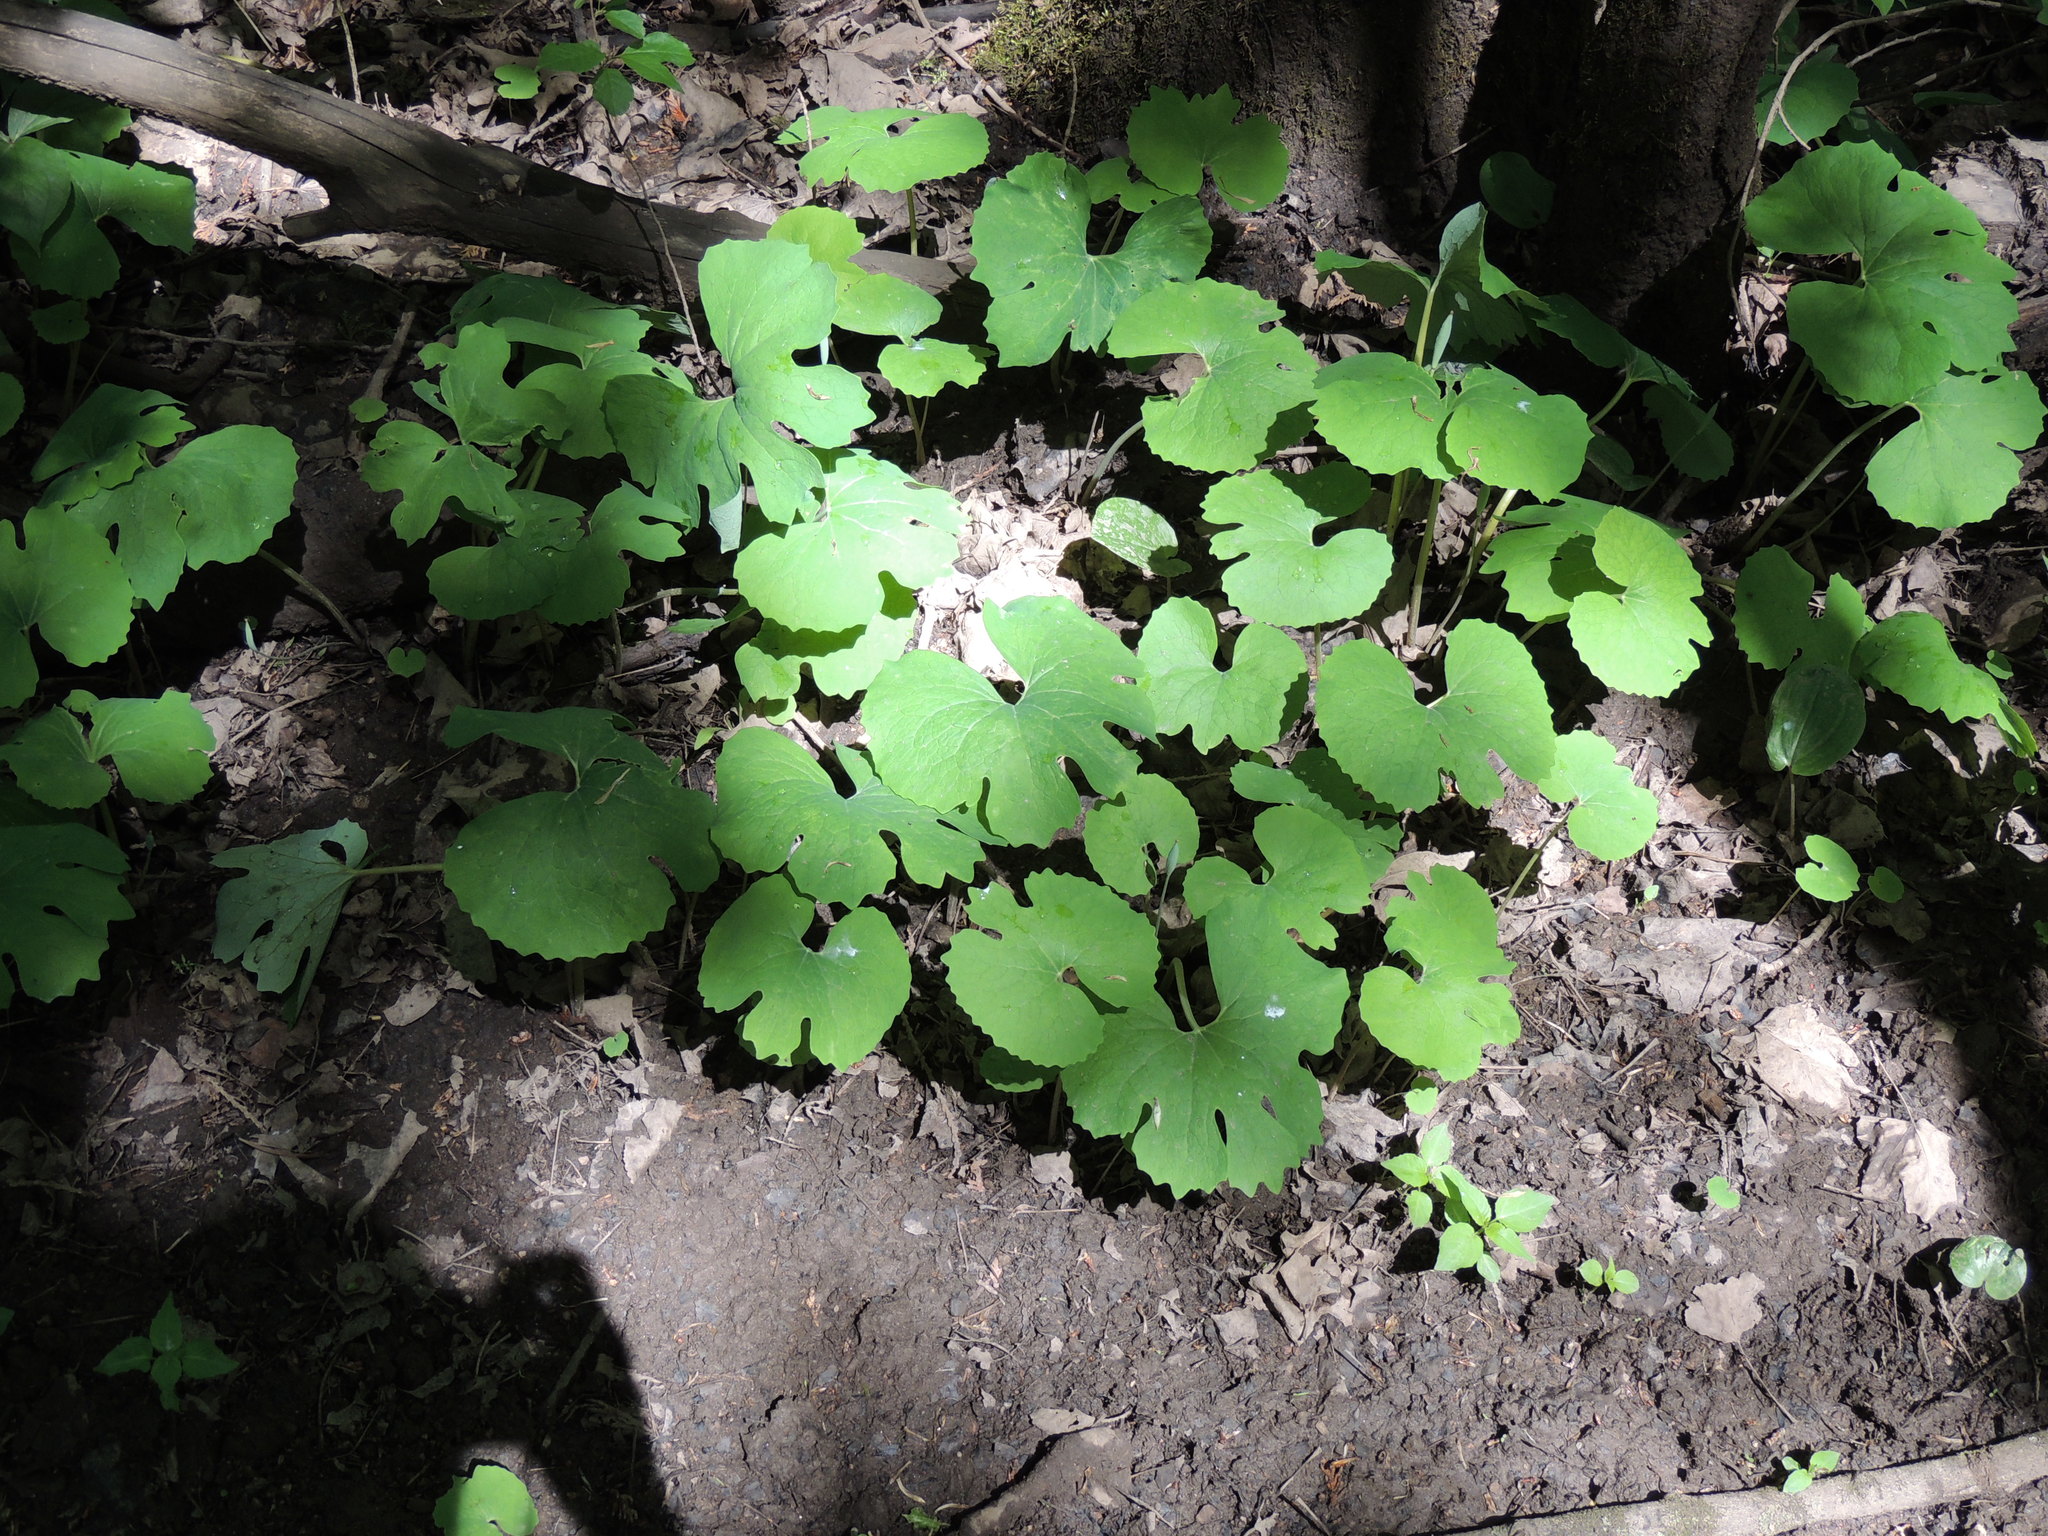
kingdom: Plantae
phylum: Tracheophyta
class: Magnoliopsida
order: Ranunculales
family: Papaveraceae
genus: Sanguinaria
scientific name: Sanguinaria canadensis
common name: Bloodroot
